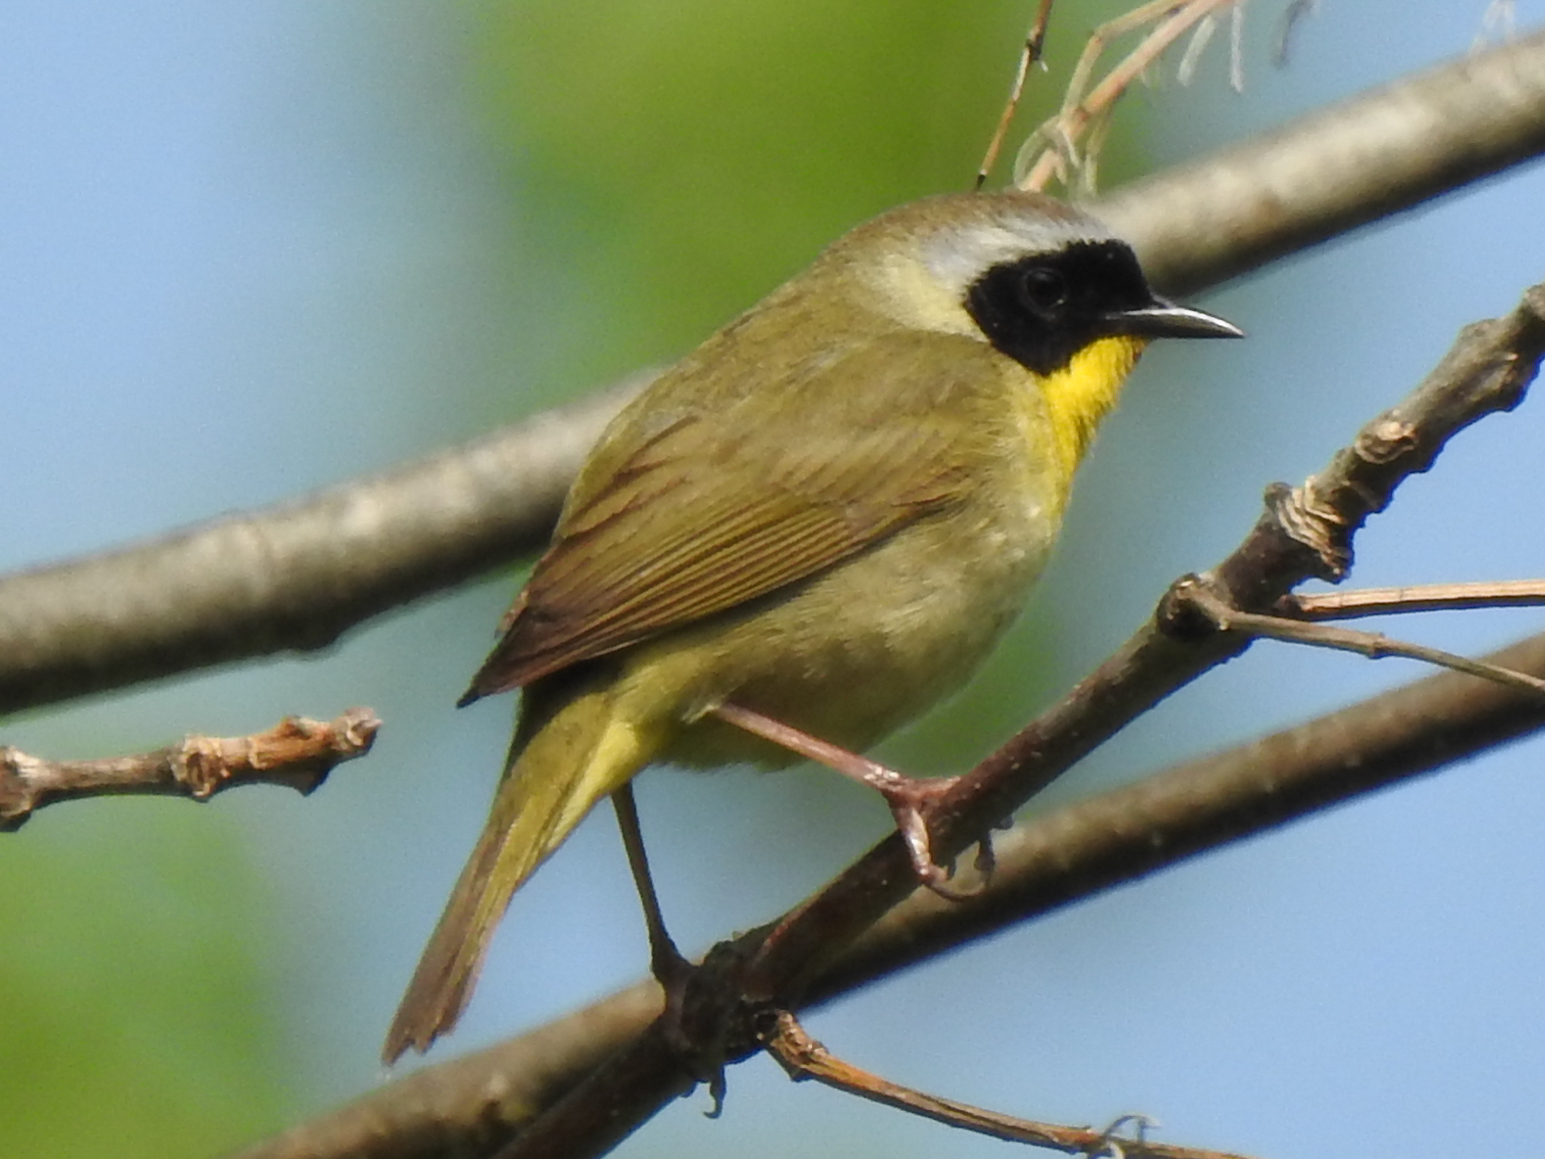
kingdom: Animalia
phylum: Chordata
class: Aves
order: Passeriformes
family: Parulidae
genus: Geothlypis
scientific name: Geothlypis trichas
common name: Common yellowthroat
